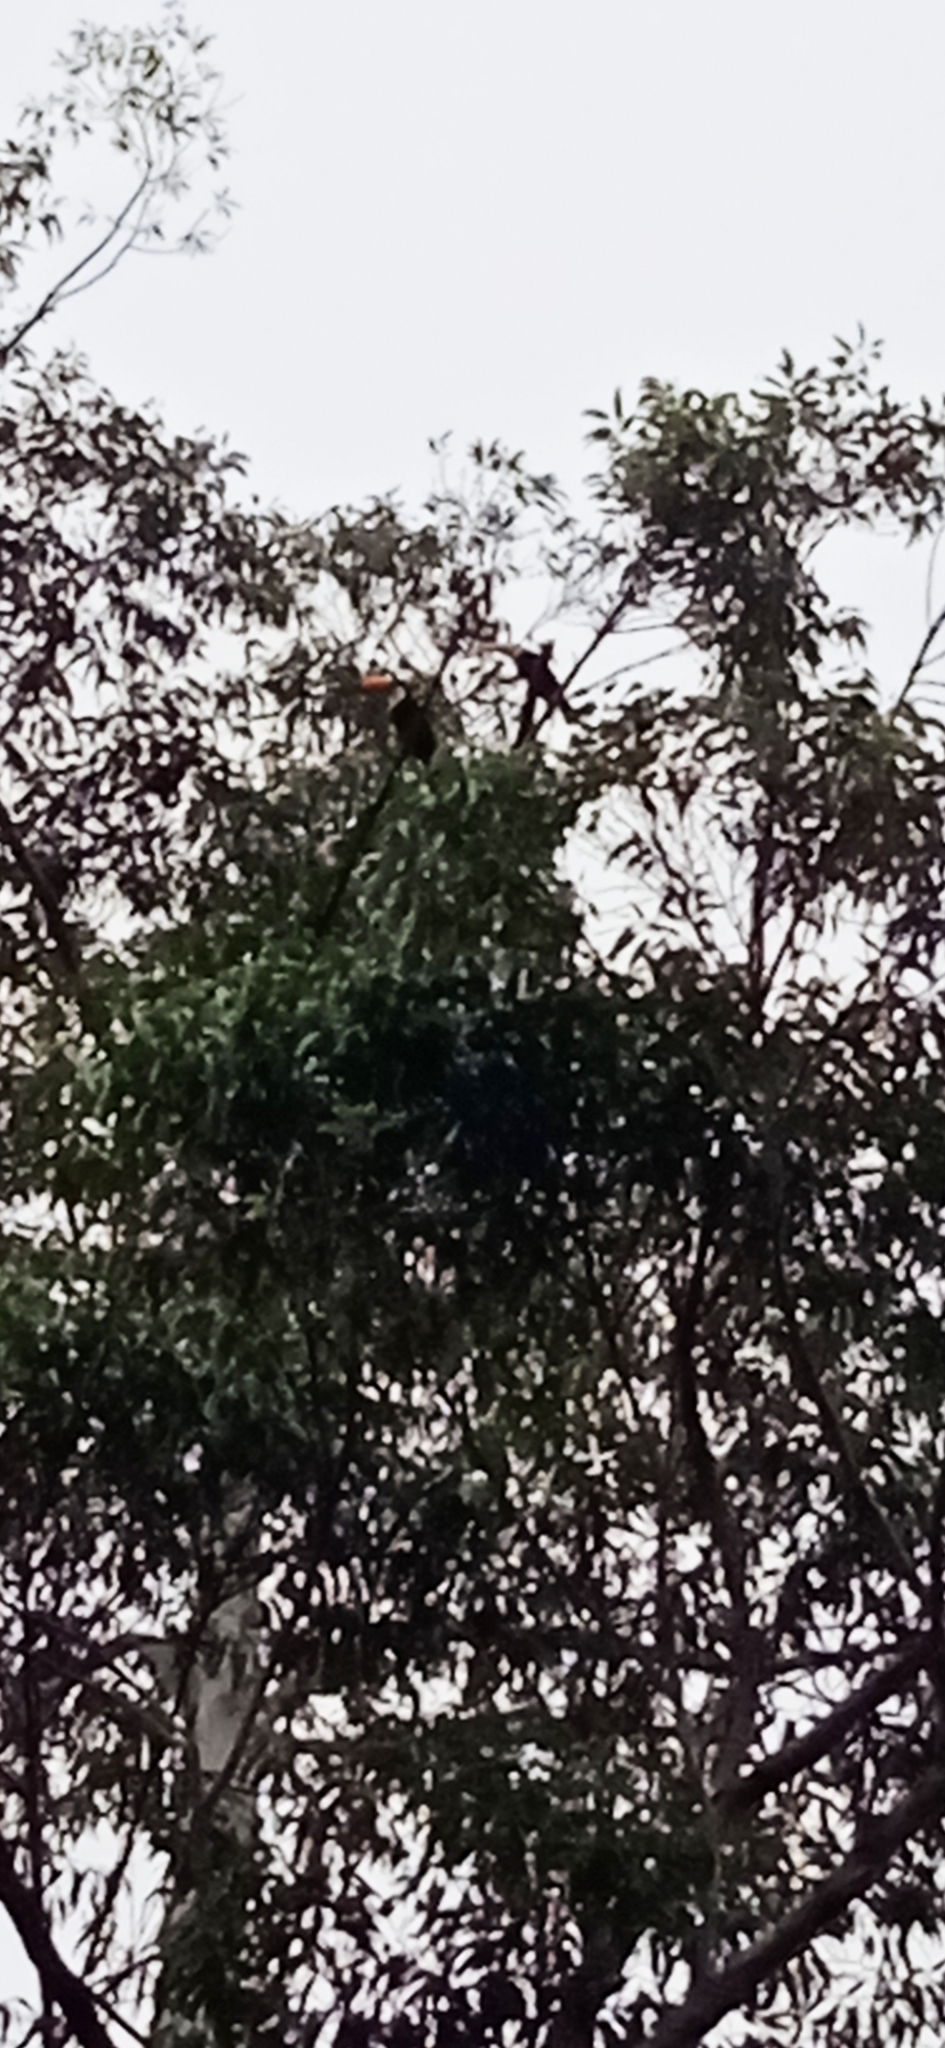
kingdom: Animalia
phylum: Chordata
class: Aves
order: Piciformes
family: Ramphastidae
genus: Ramphastos
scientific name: Ramphastos toco
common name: Toco toucan
